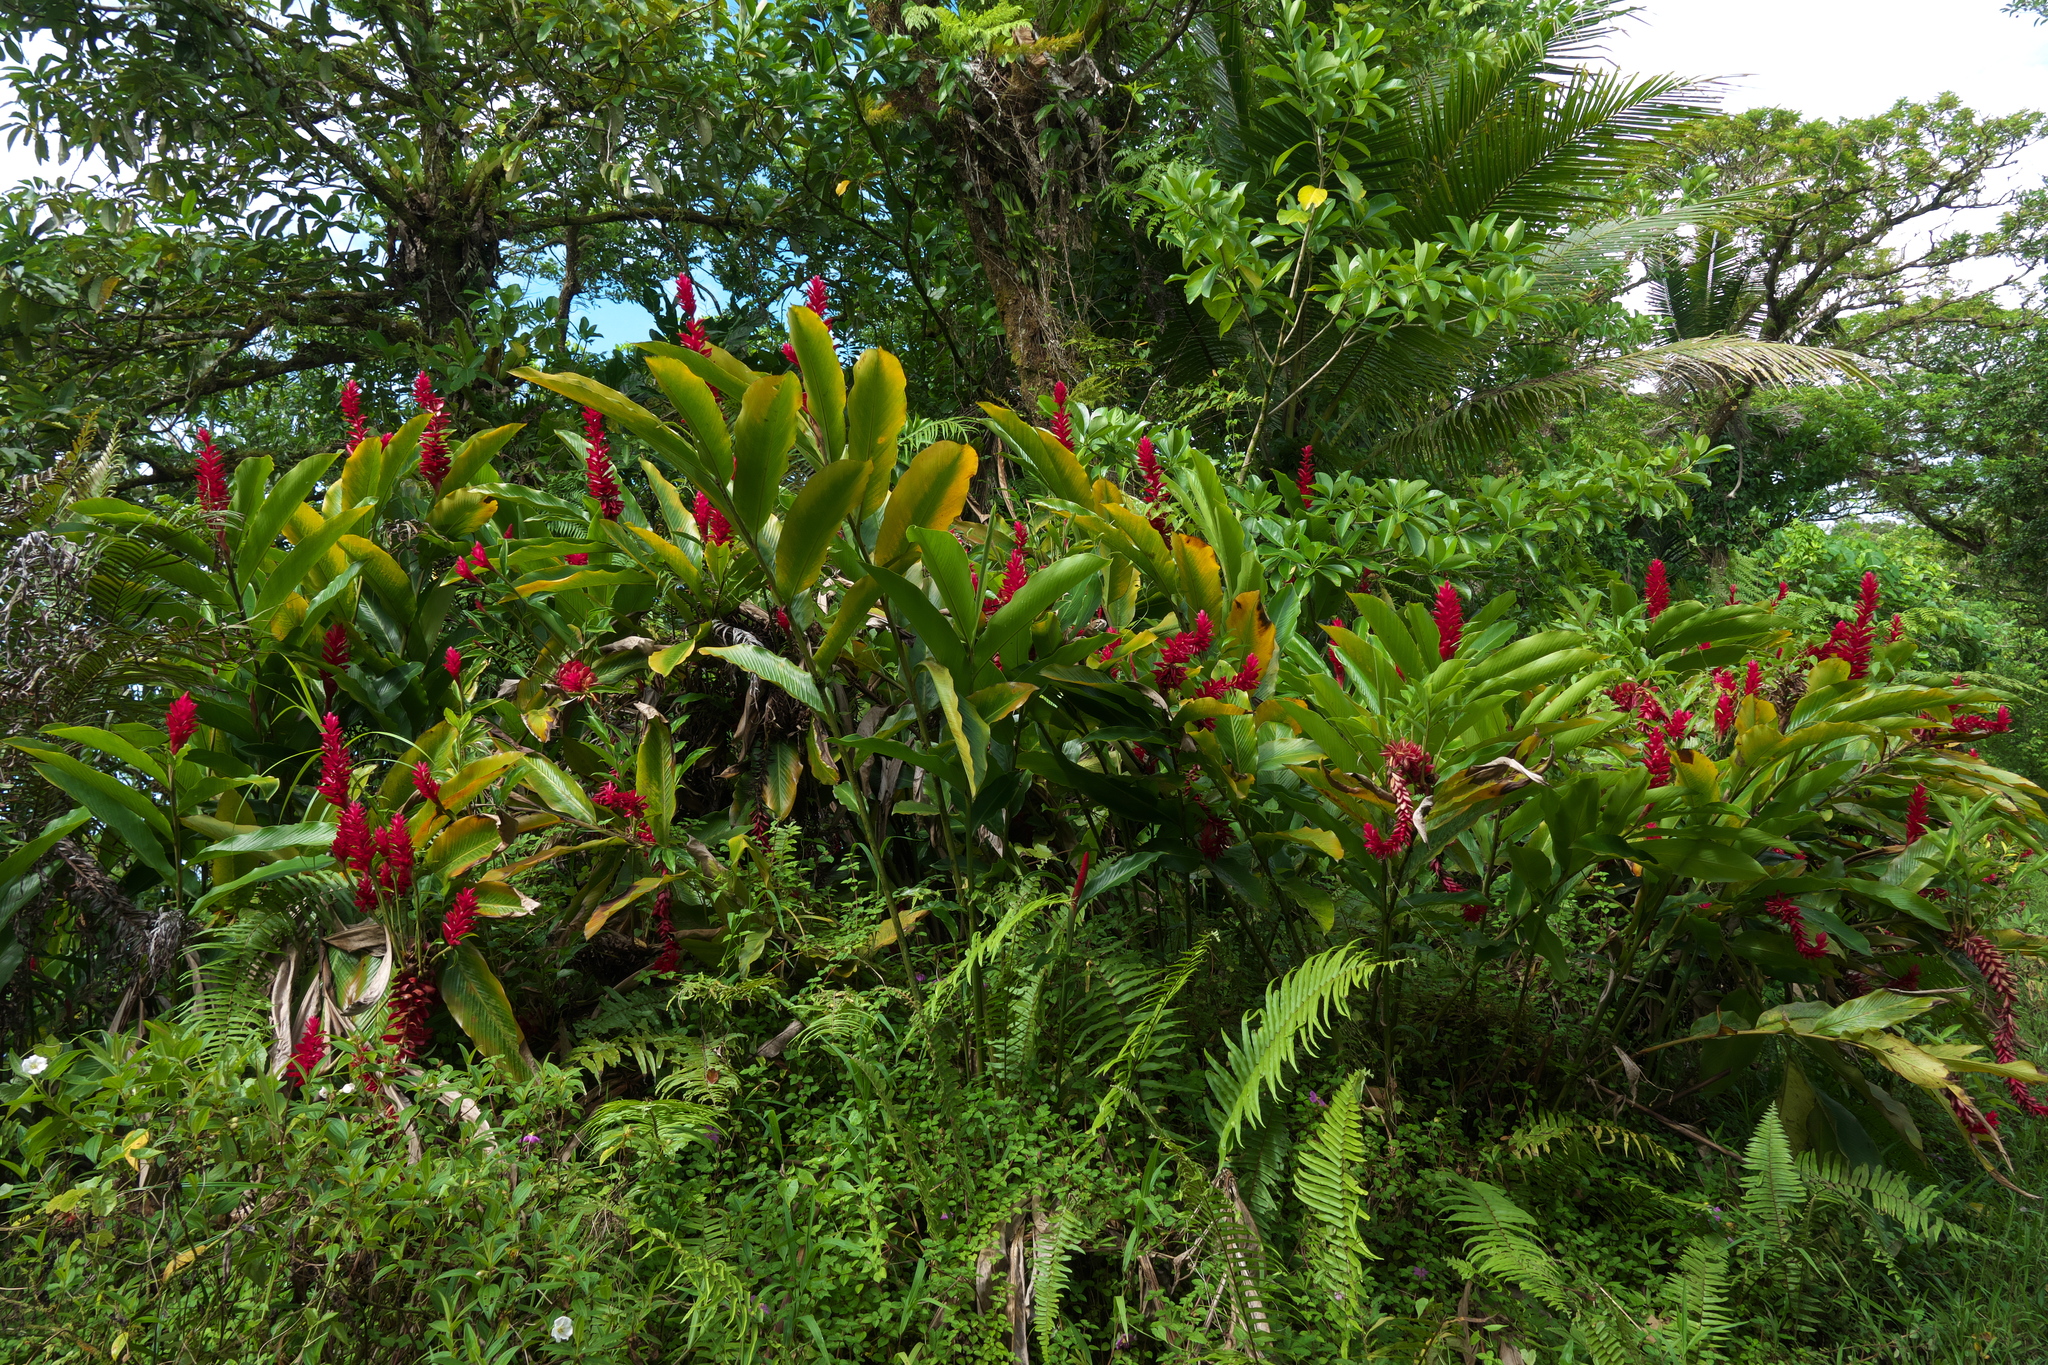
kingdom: Plantae
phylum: Tracheophyta
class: Liliopsida
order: Zingiberales
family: Zingiberaceae
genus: Alpinia
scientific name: Alpinia purpurata
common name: Red ginger
